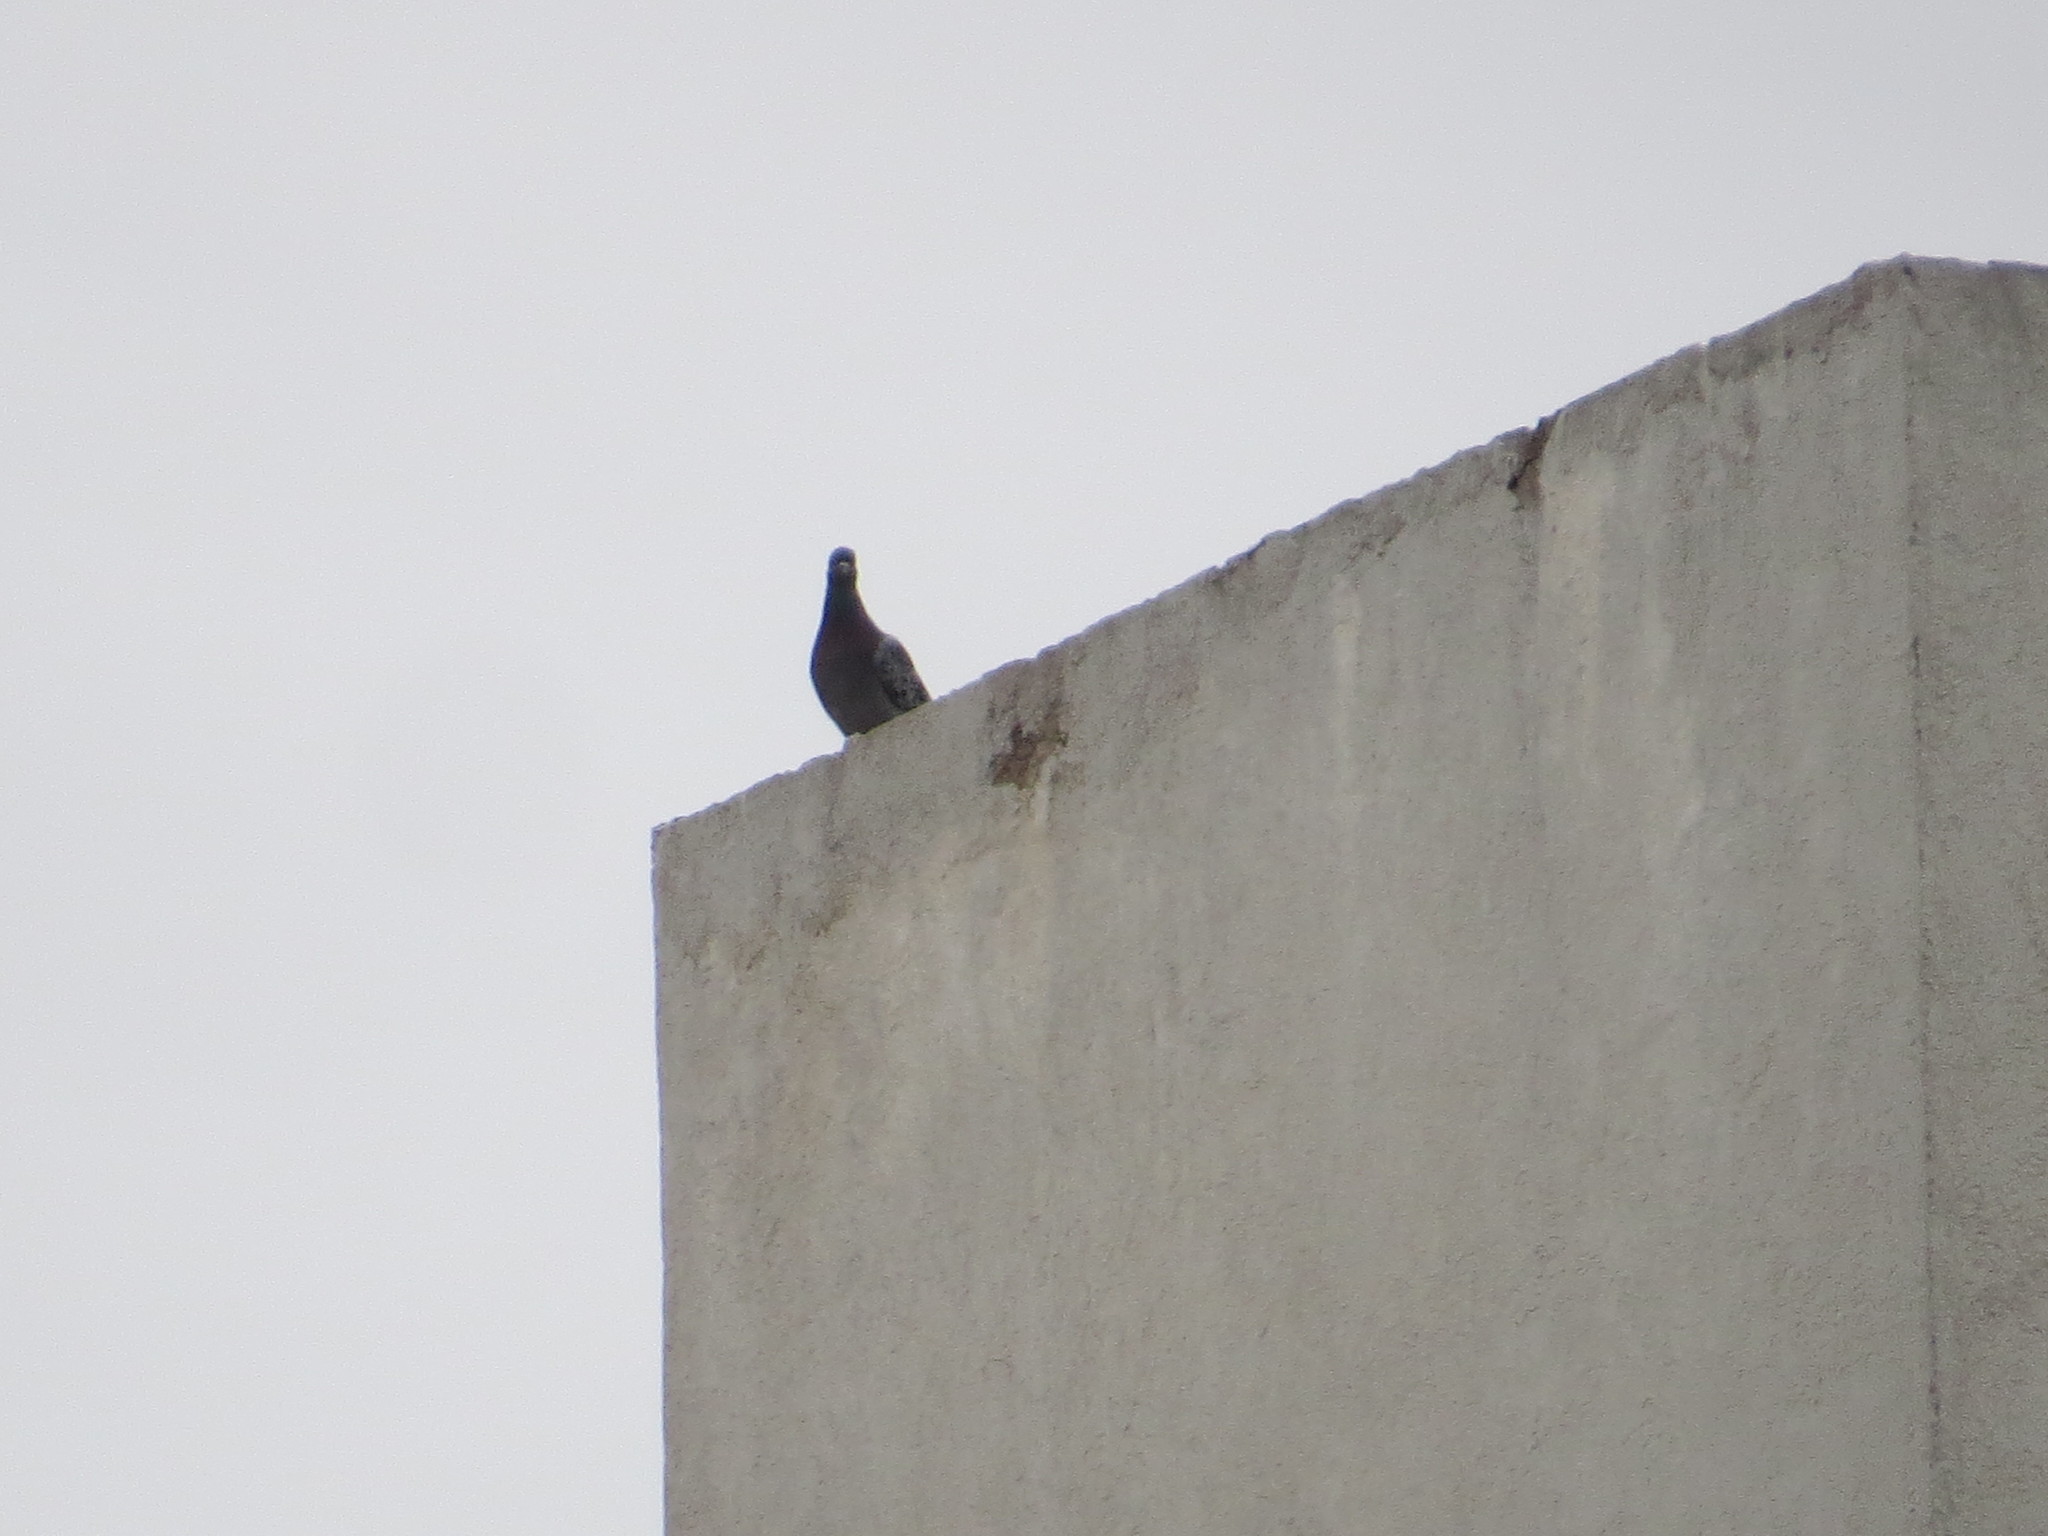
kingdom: Animalia
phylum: Chordata
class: Aves
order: Columbiformes
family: Columbidae
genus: Columba
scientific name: Columba livia
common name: Rock pigeon
